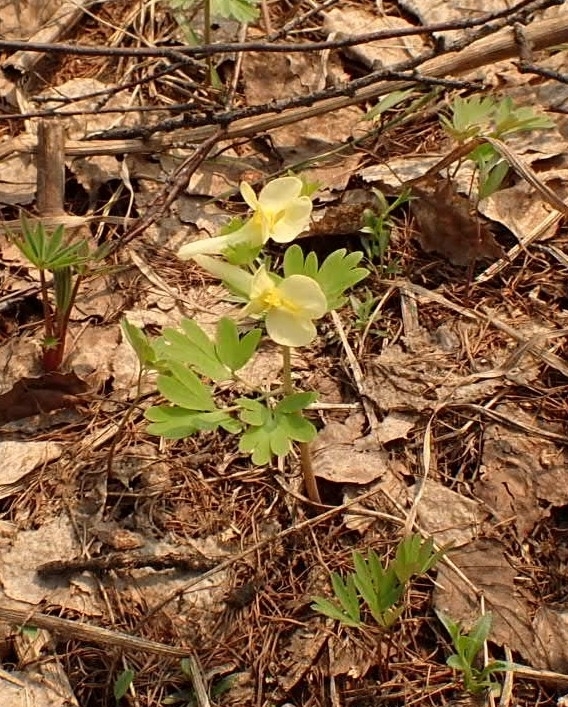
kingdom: Plantae
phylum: Tracheophyta
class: Magnoliopsida
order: Ranunculales
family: Papaveraceae
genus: Corydalis
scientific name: Corydalis bracteata
